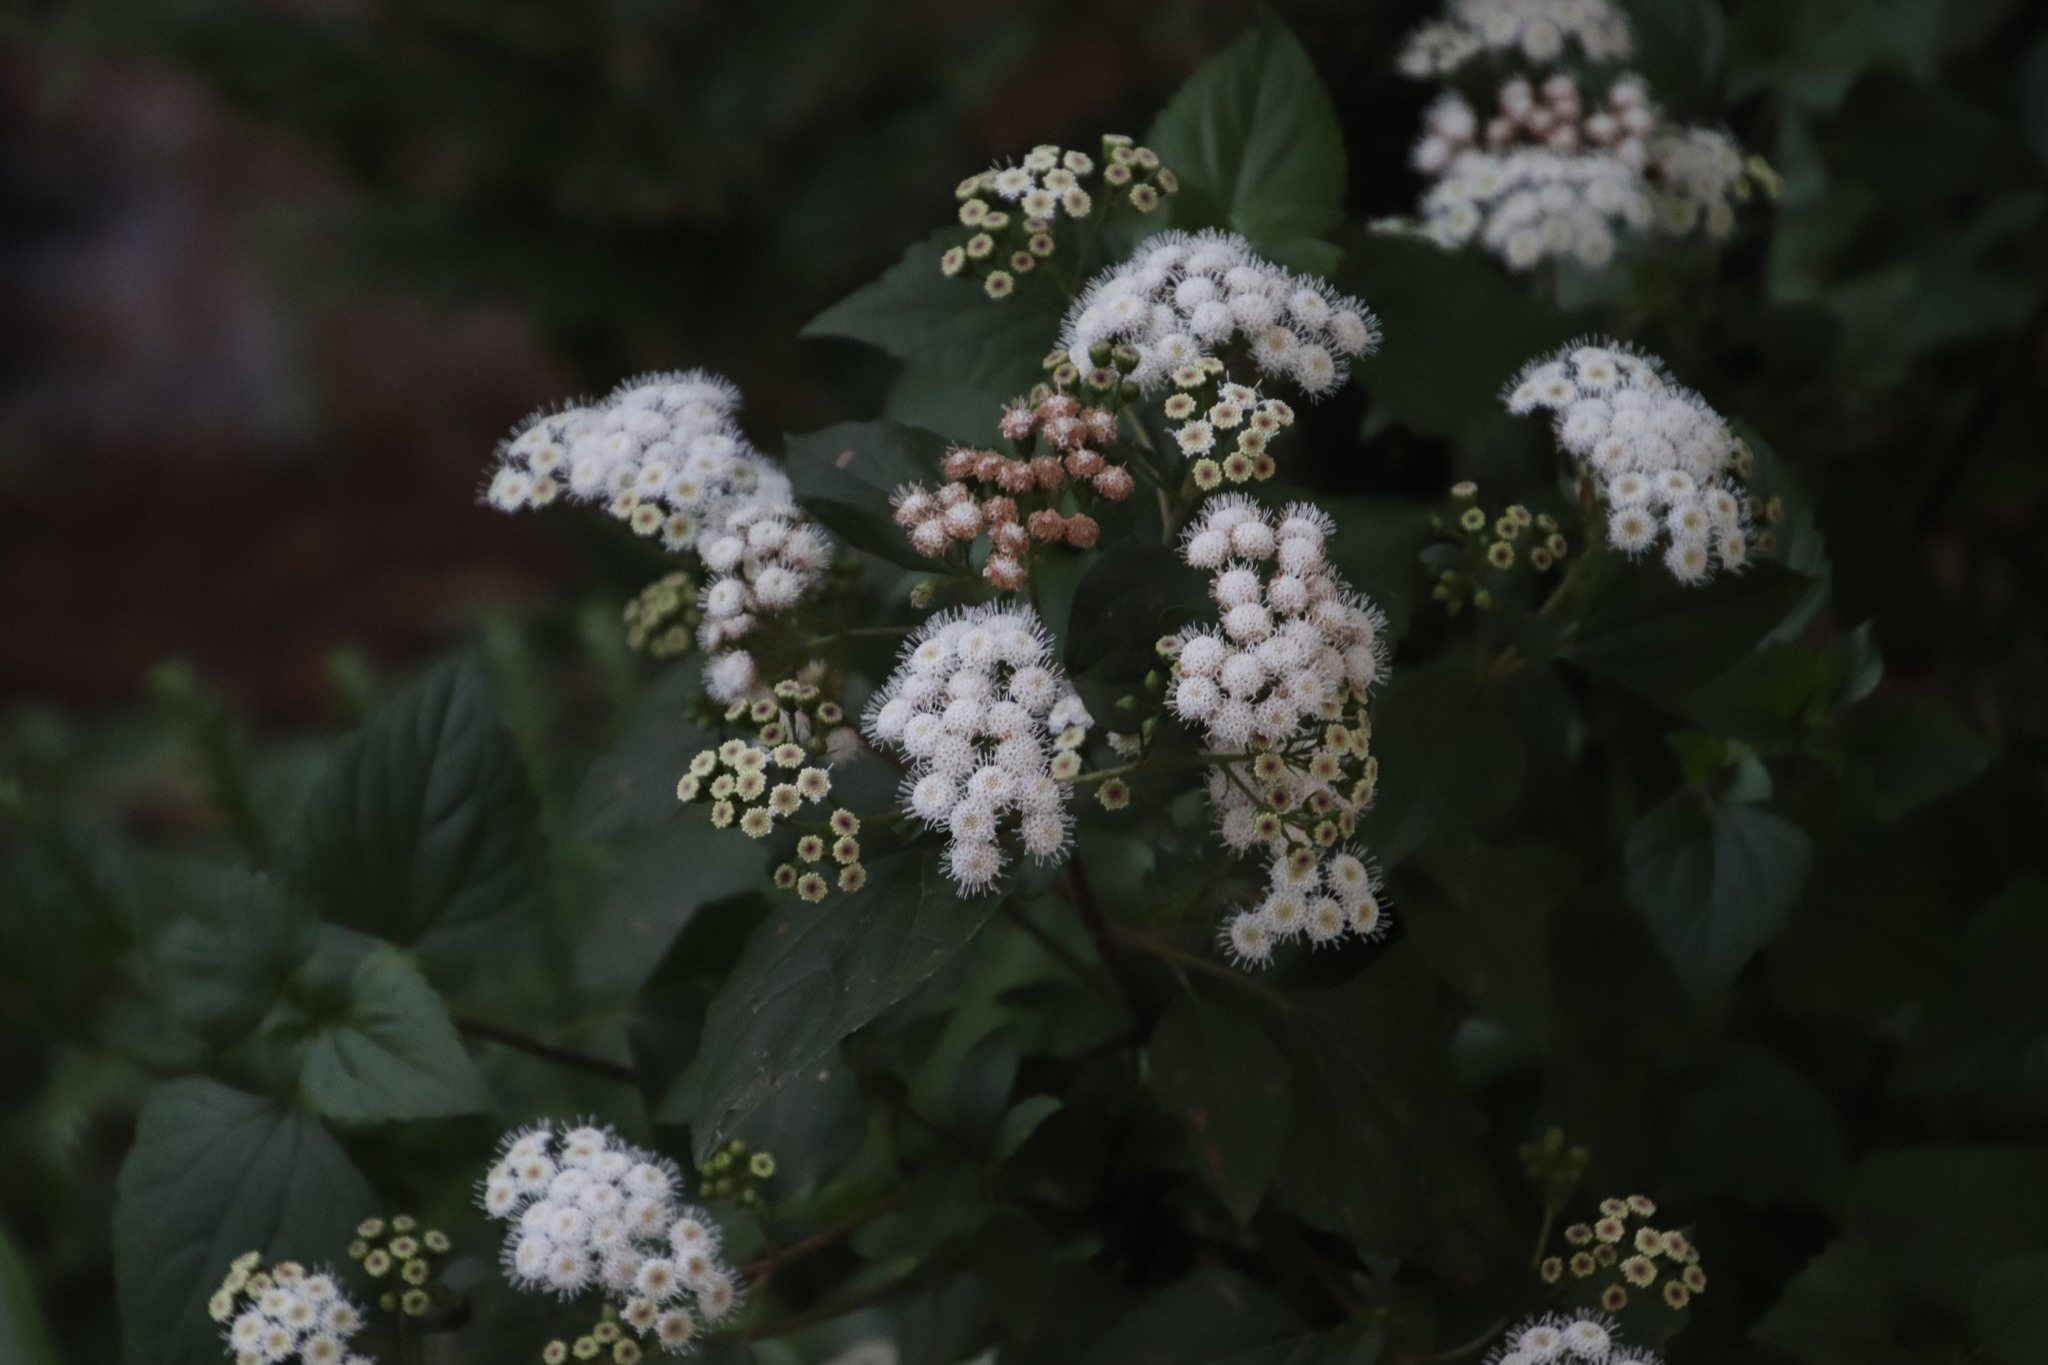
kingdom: Plantae
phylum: Tracheophyta
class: Magnoliopsida
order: Asterales
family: Asteraceae
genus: Ageratina
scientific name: Ageratina adenophora
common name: Sticky snakeroot
